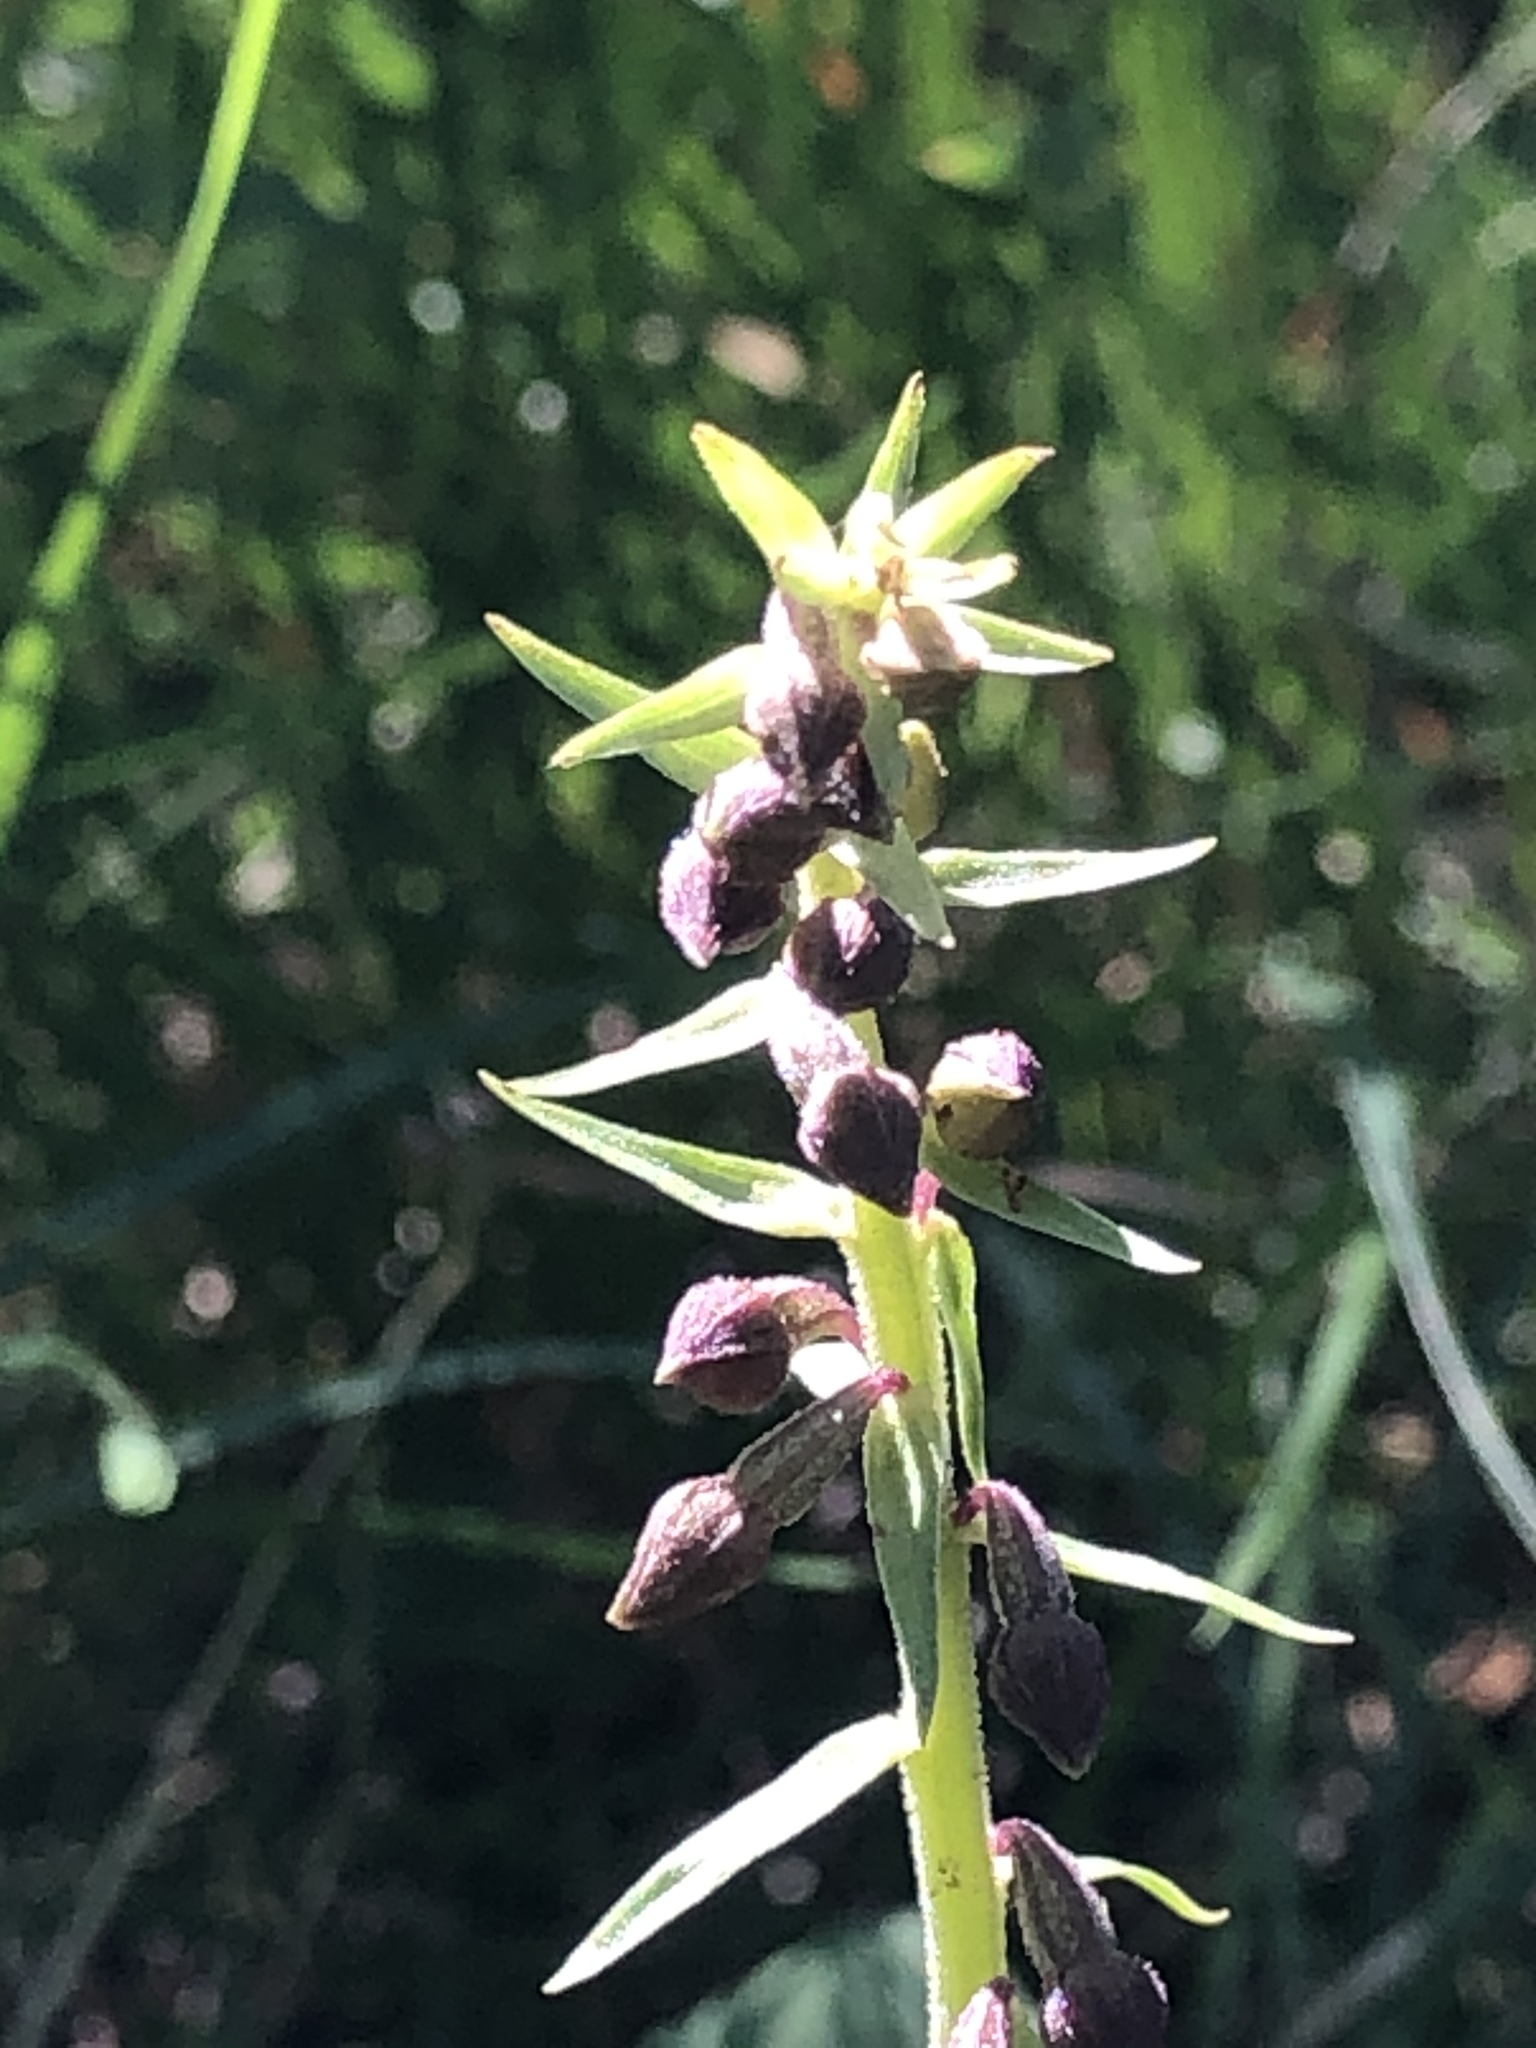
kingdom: Plantae
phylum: Tracheophyta
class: Liliopsida
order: Asparagales
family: Orchidaceae
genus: Epipactis
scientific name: Epipactis atrorubens
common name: Dark-red helleborine
